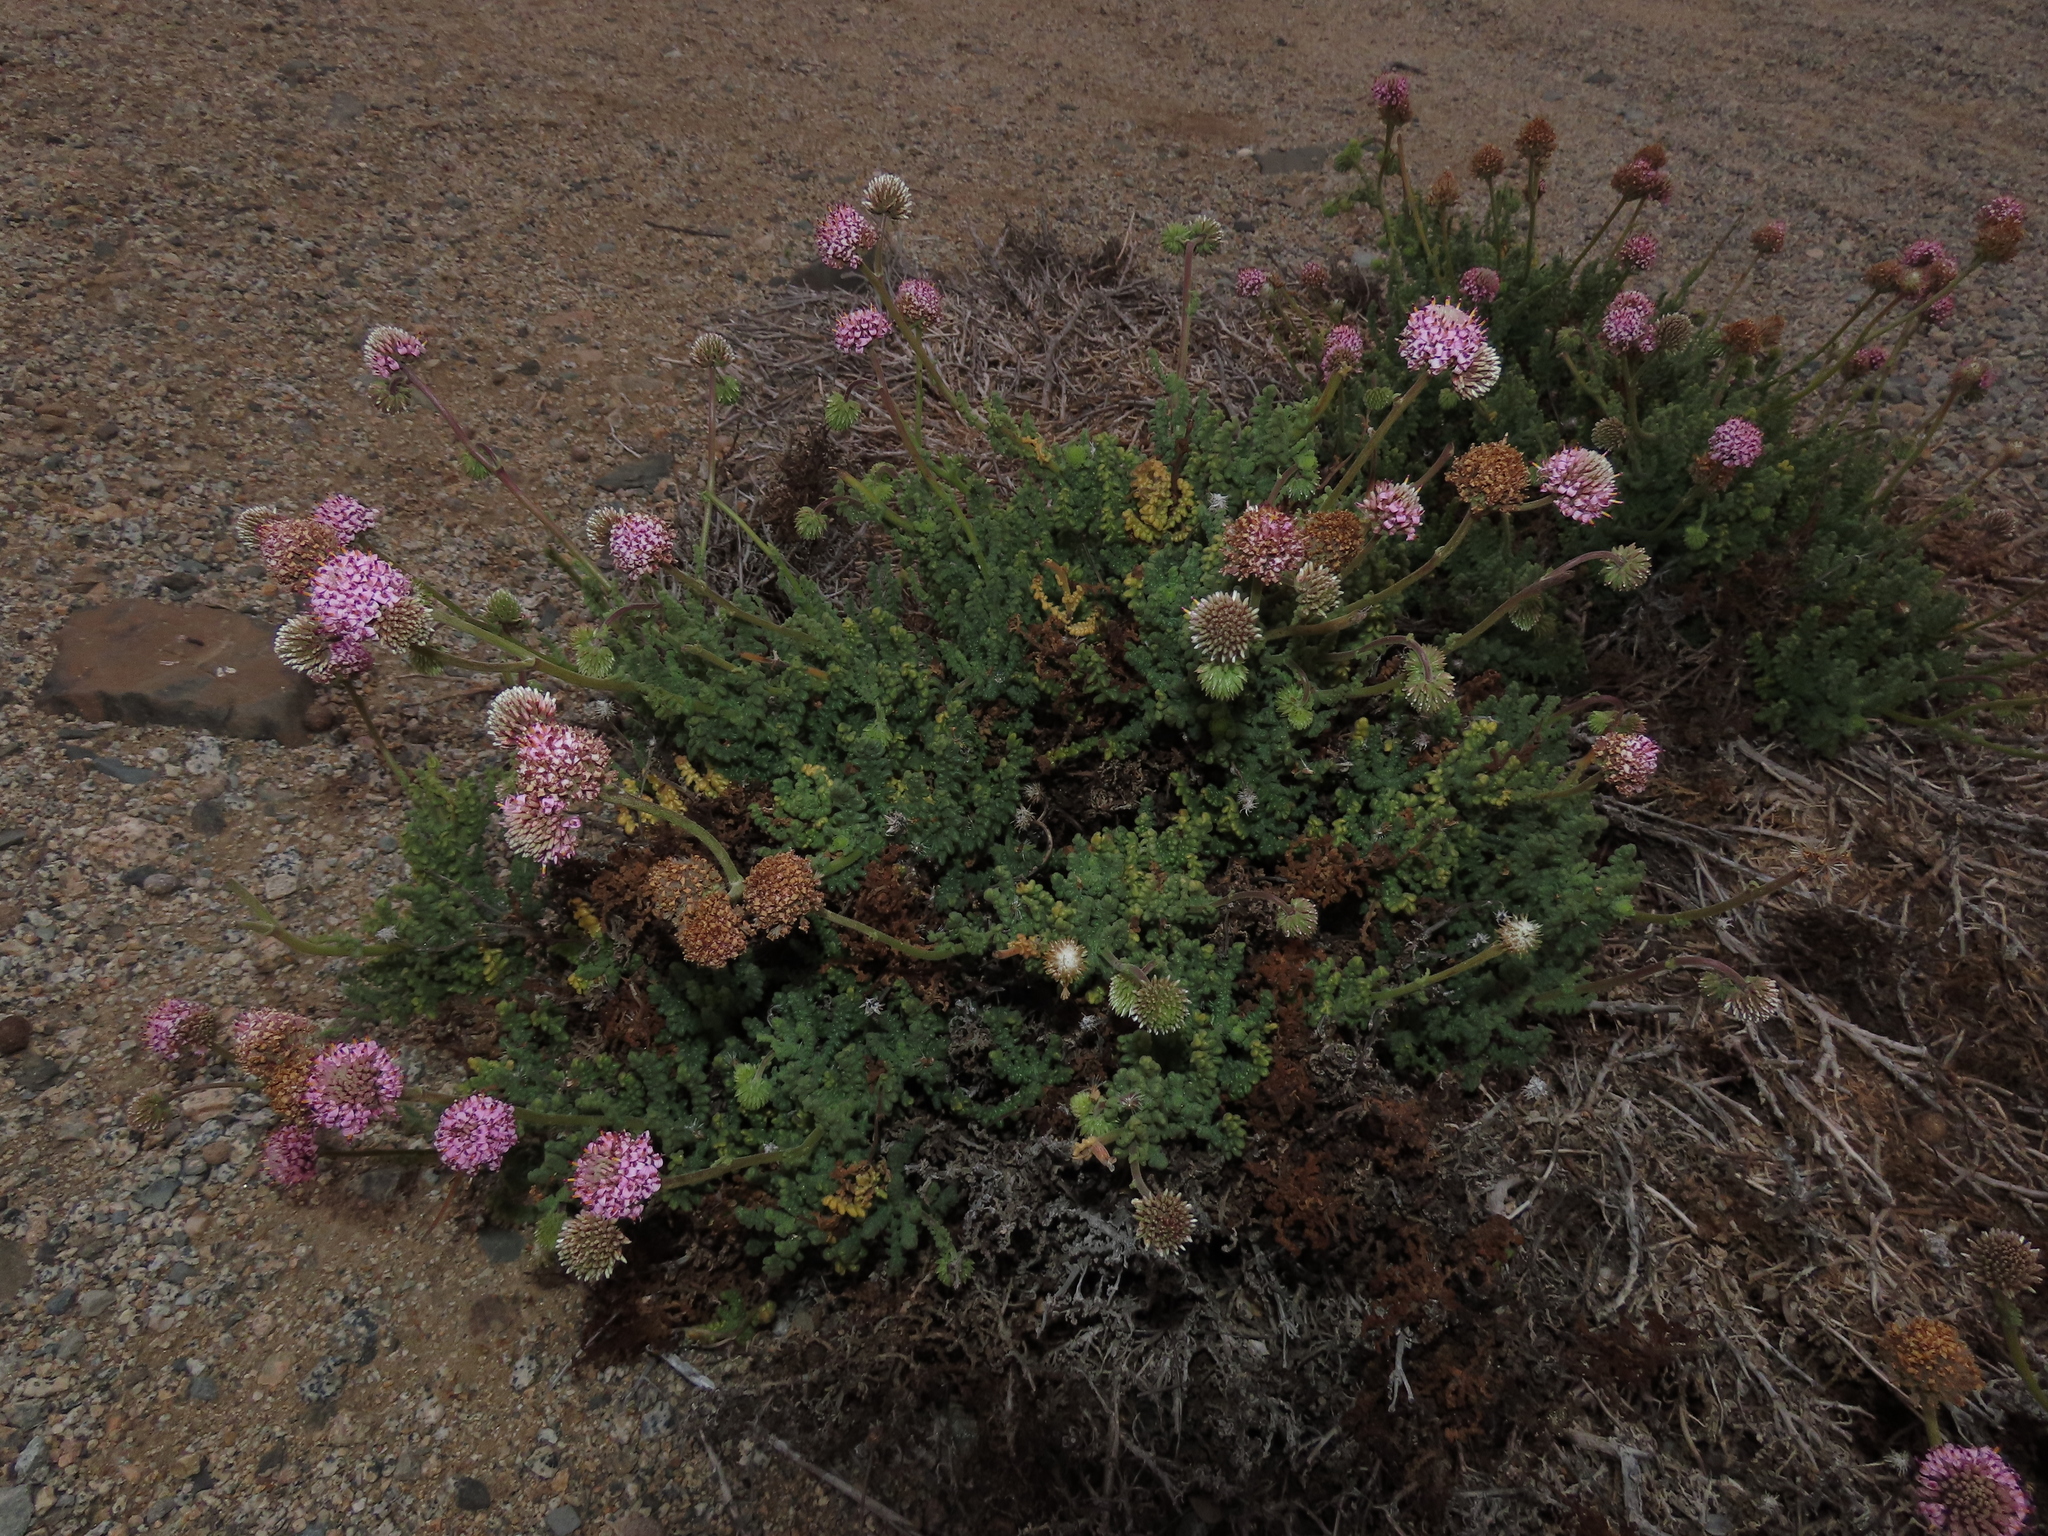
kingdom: Plantae
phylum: Tracheophyta
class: Magnoliopsida
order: Asterales
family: Asteraceae
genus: Polyachyrus
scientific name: Polyachyrus fuscus
